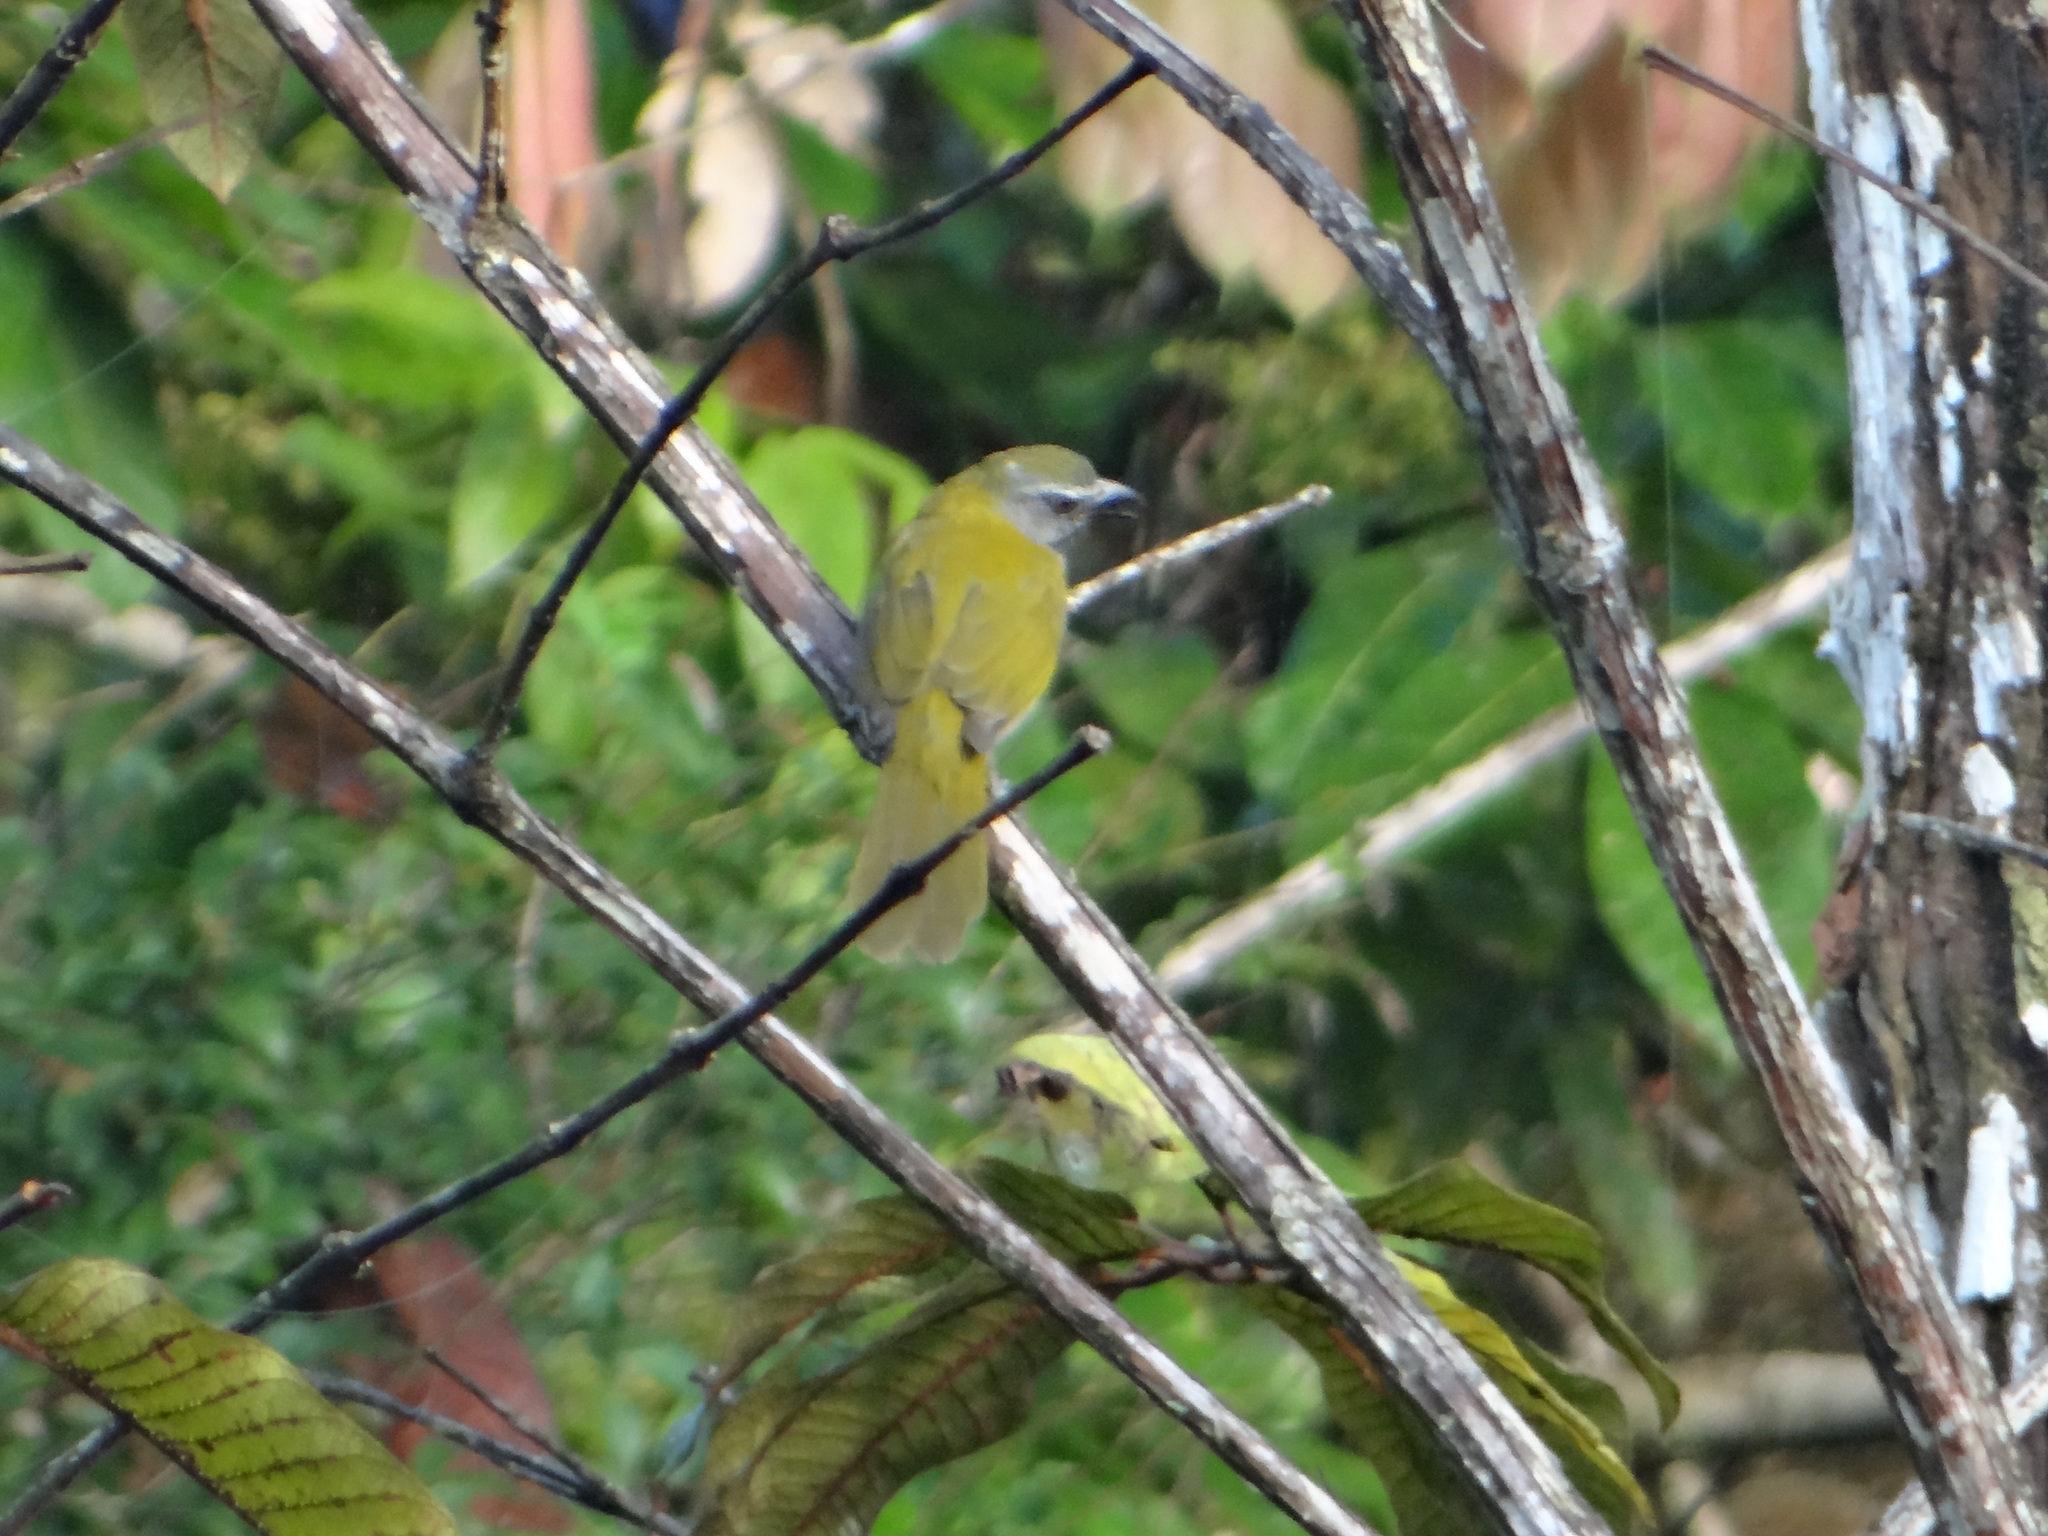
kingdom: Animalia
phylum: Chordata
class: Aves
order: Passeriformes
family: Thraupidae
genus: Saltator
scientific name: Saltator maximus
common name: Buff-throated saltator
